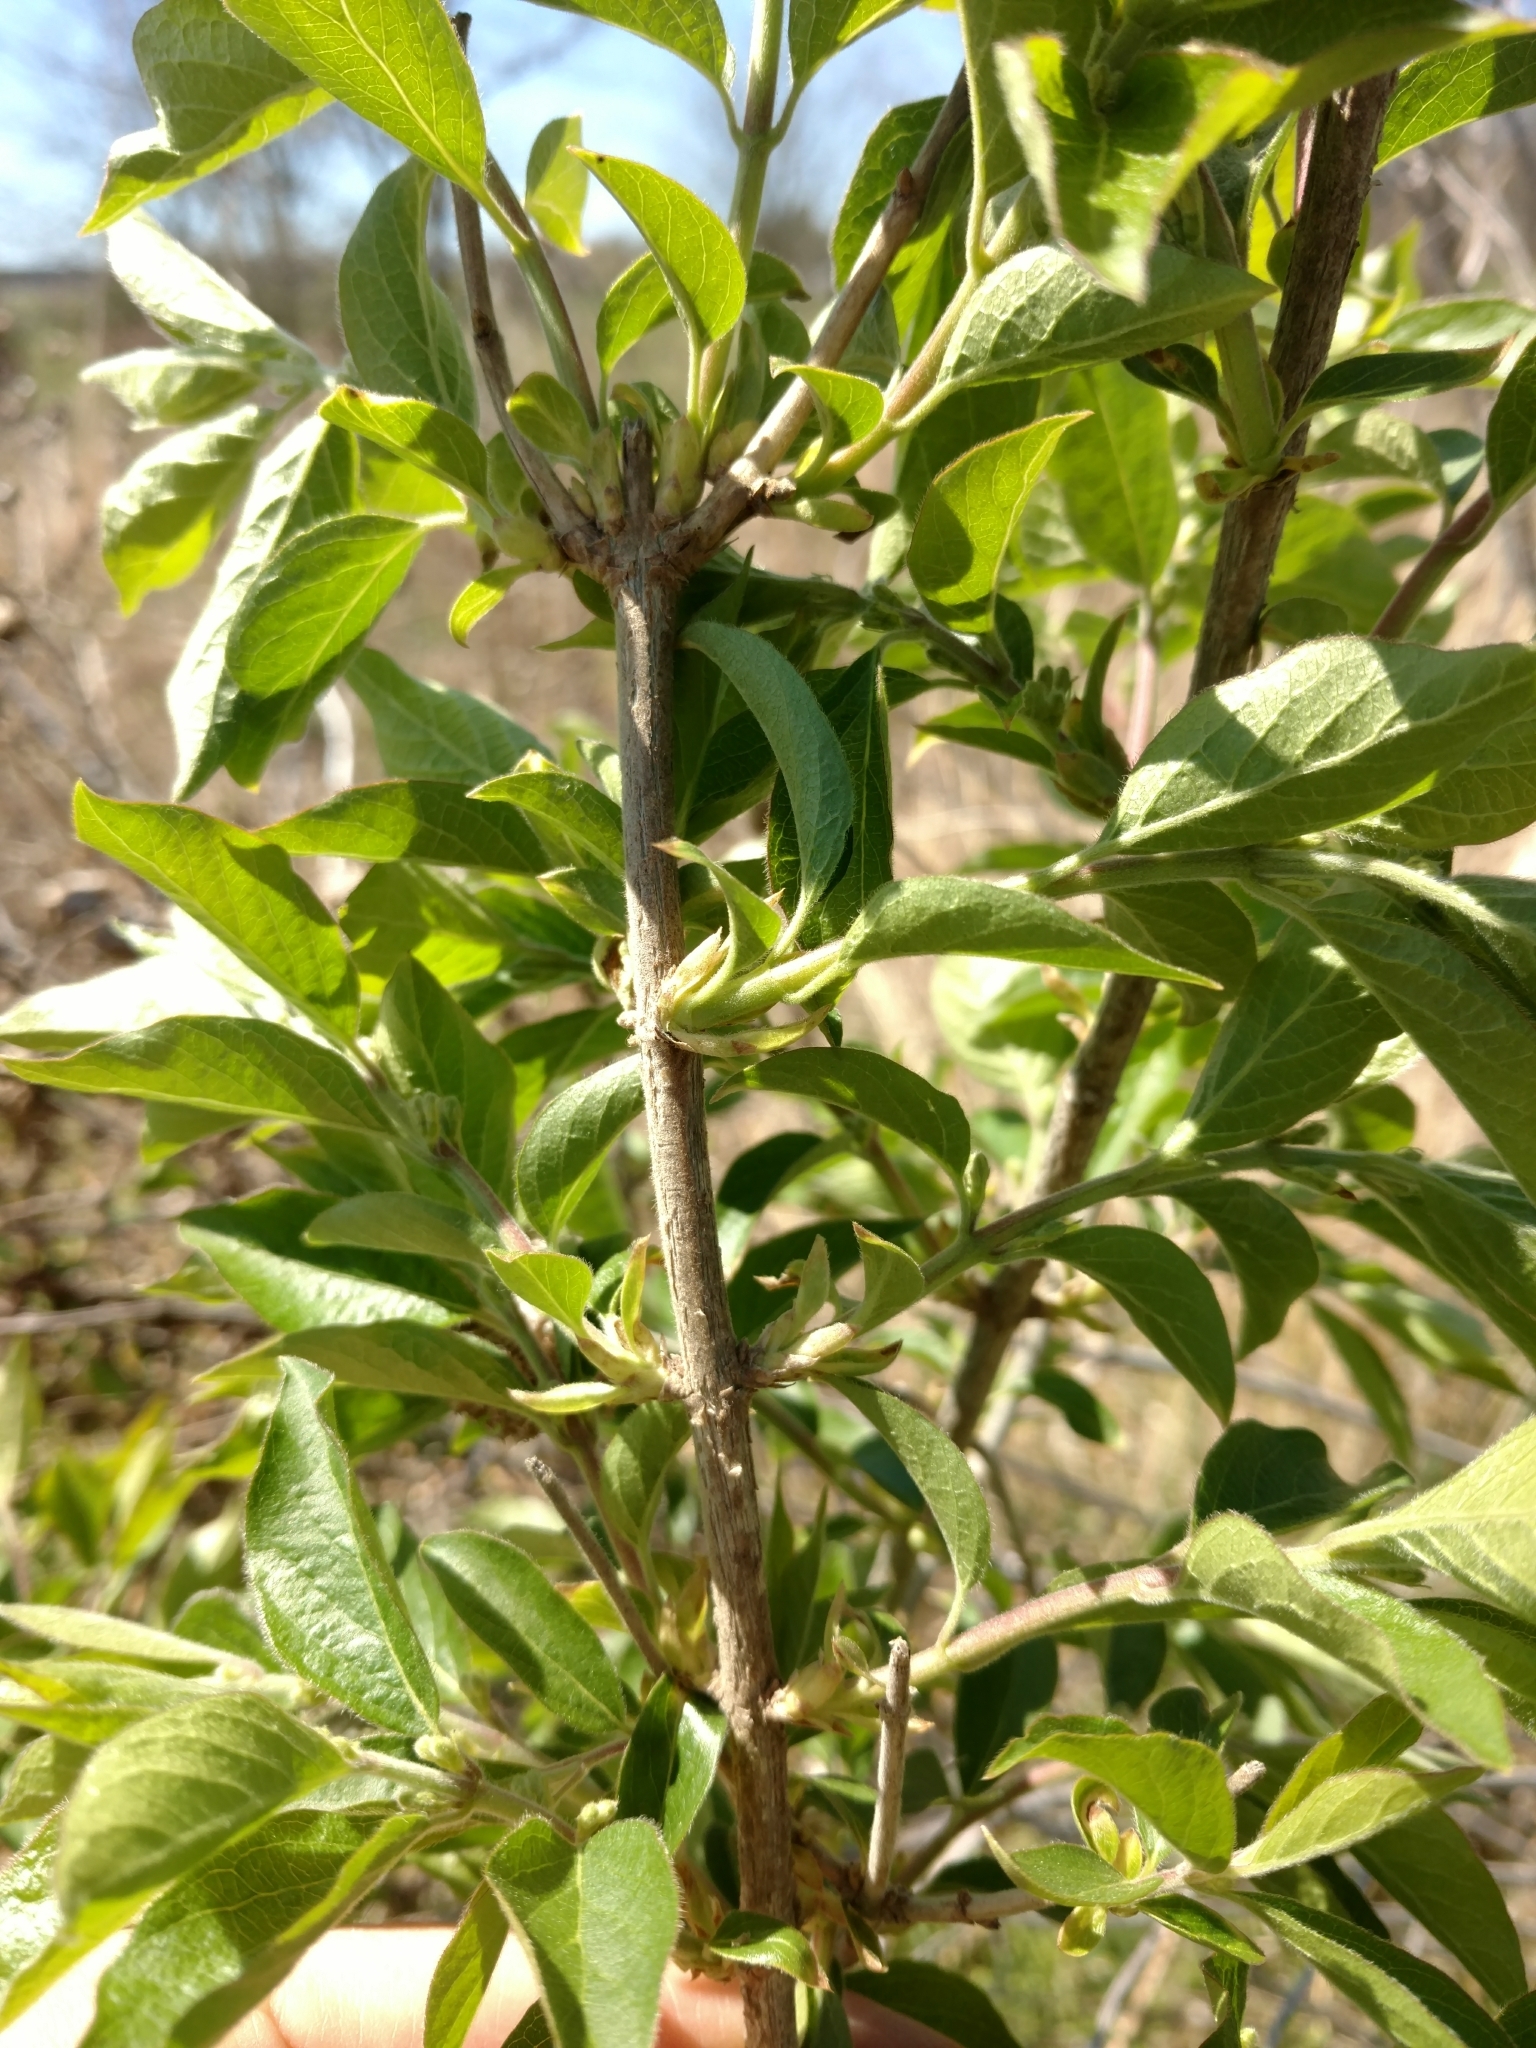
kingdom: Plantae
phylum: Tracheophyta
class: Magnoliopsida
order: Dipsacales
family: Caprifoliaceae
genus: Lonicera
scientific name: Lonicera maackii
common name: Amur honeysuckle
